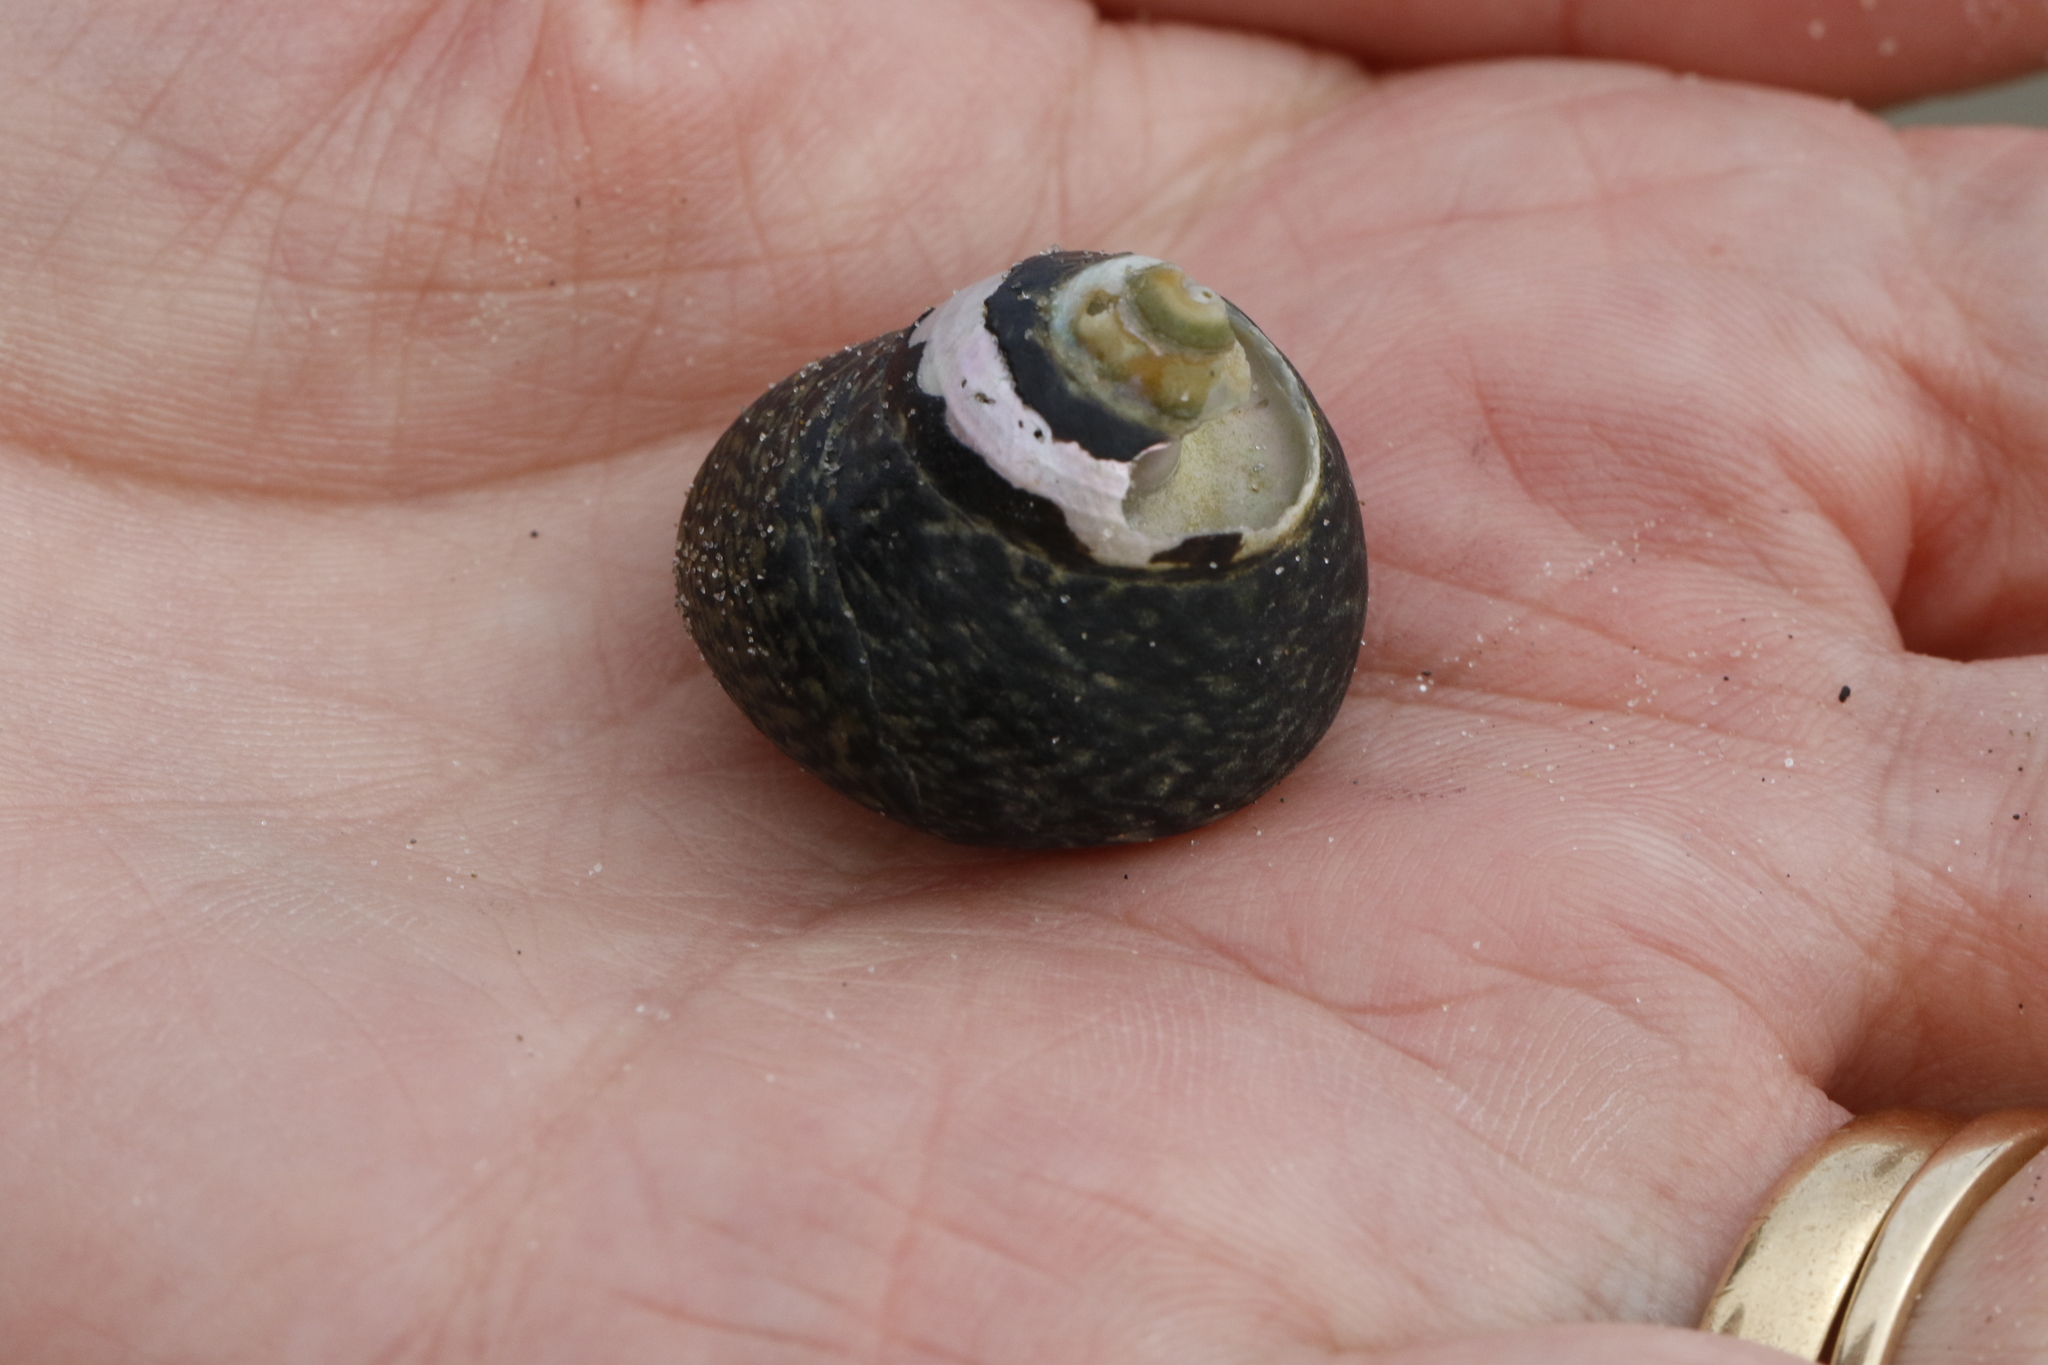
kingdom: Animalia
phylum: Mollusca
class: Gastropoda
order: Trochida
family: Trochidae
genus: Phorcus
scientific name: Phorcus lineatus
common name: Toothed top shell
